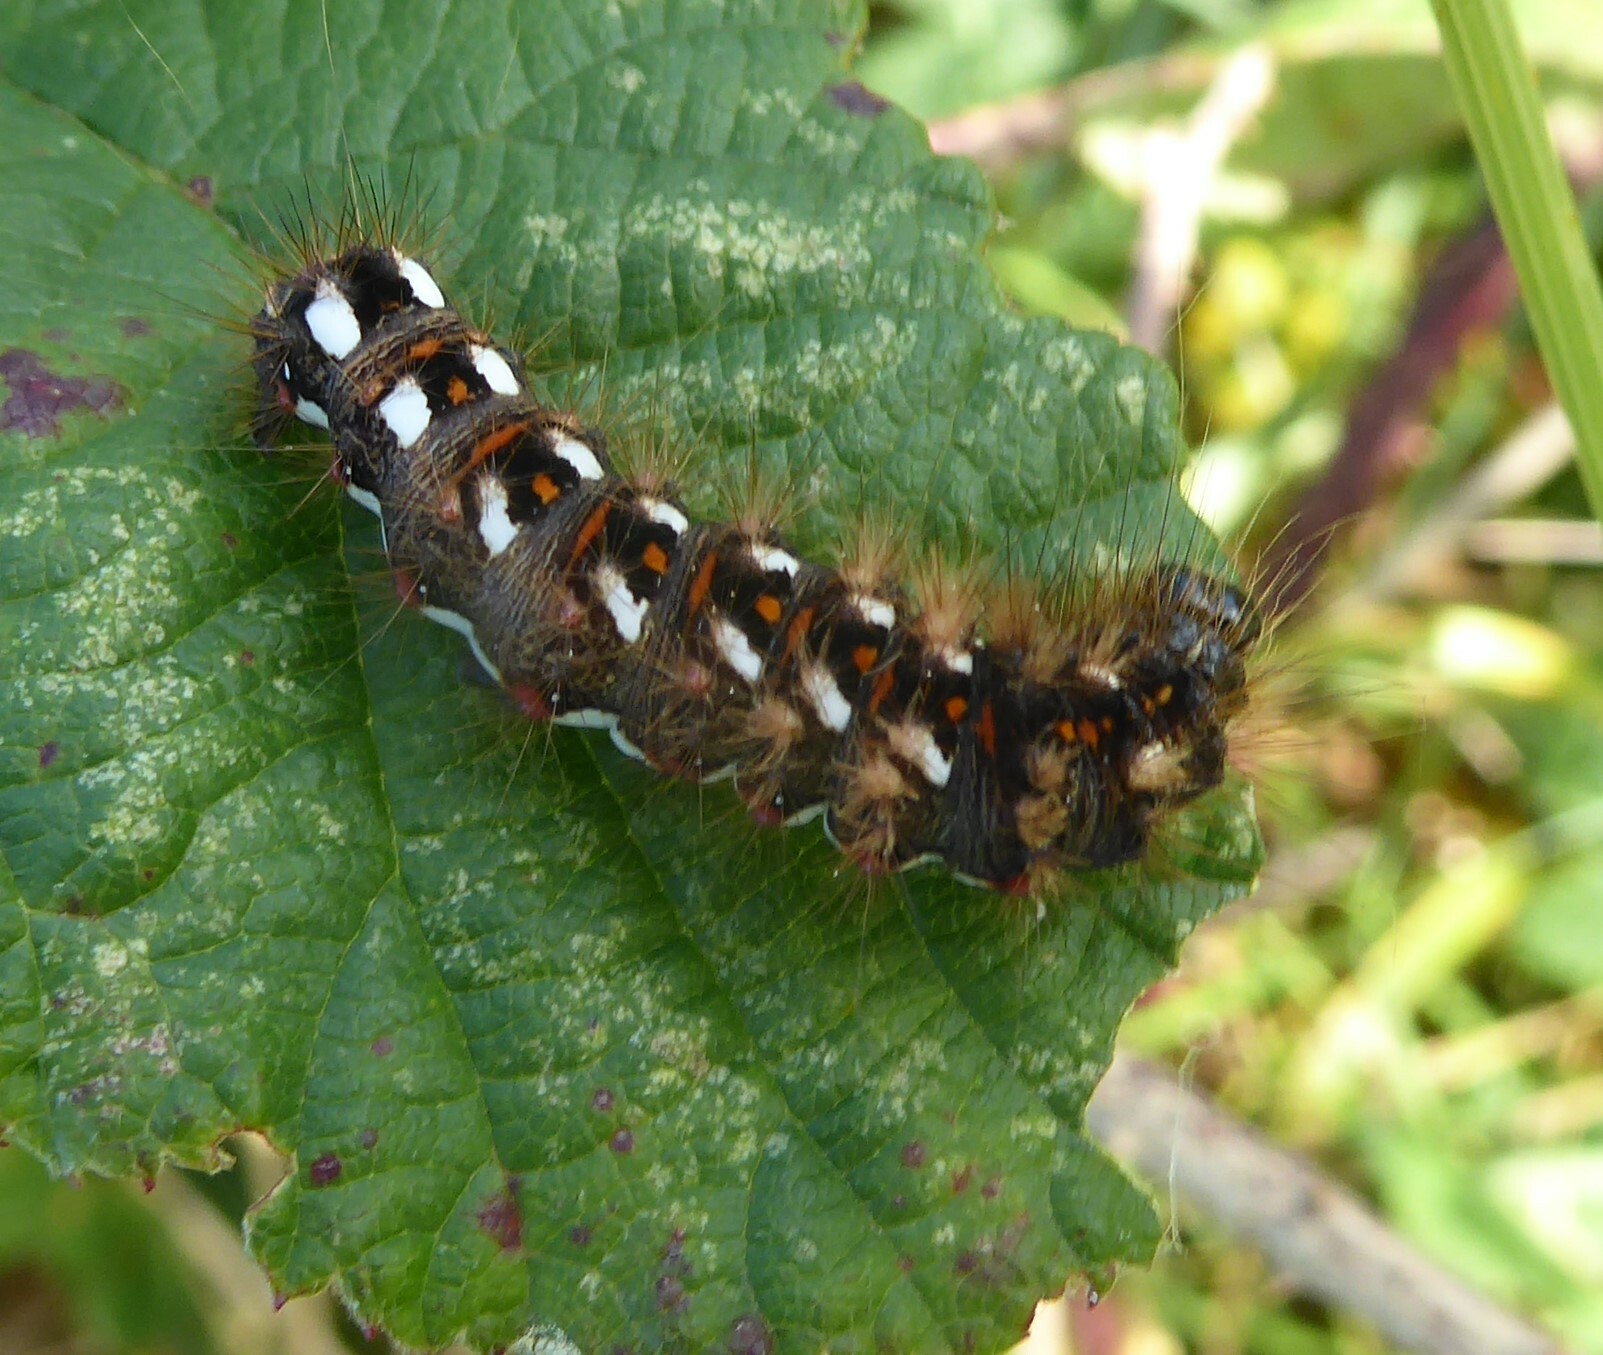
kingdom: Animalia
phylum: Arthropoda
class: Insecta
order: Lepidoptera
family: Noctuidae
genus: Acronicta
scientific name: Acronicta rumicis
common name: Knot grass
